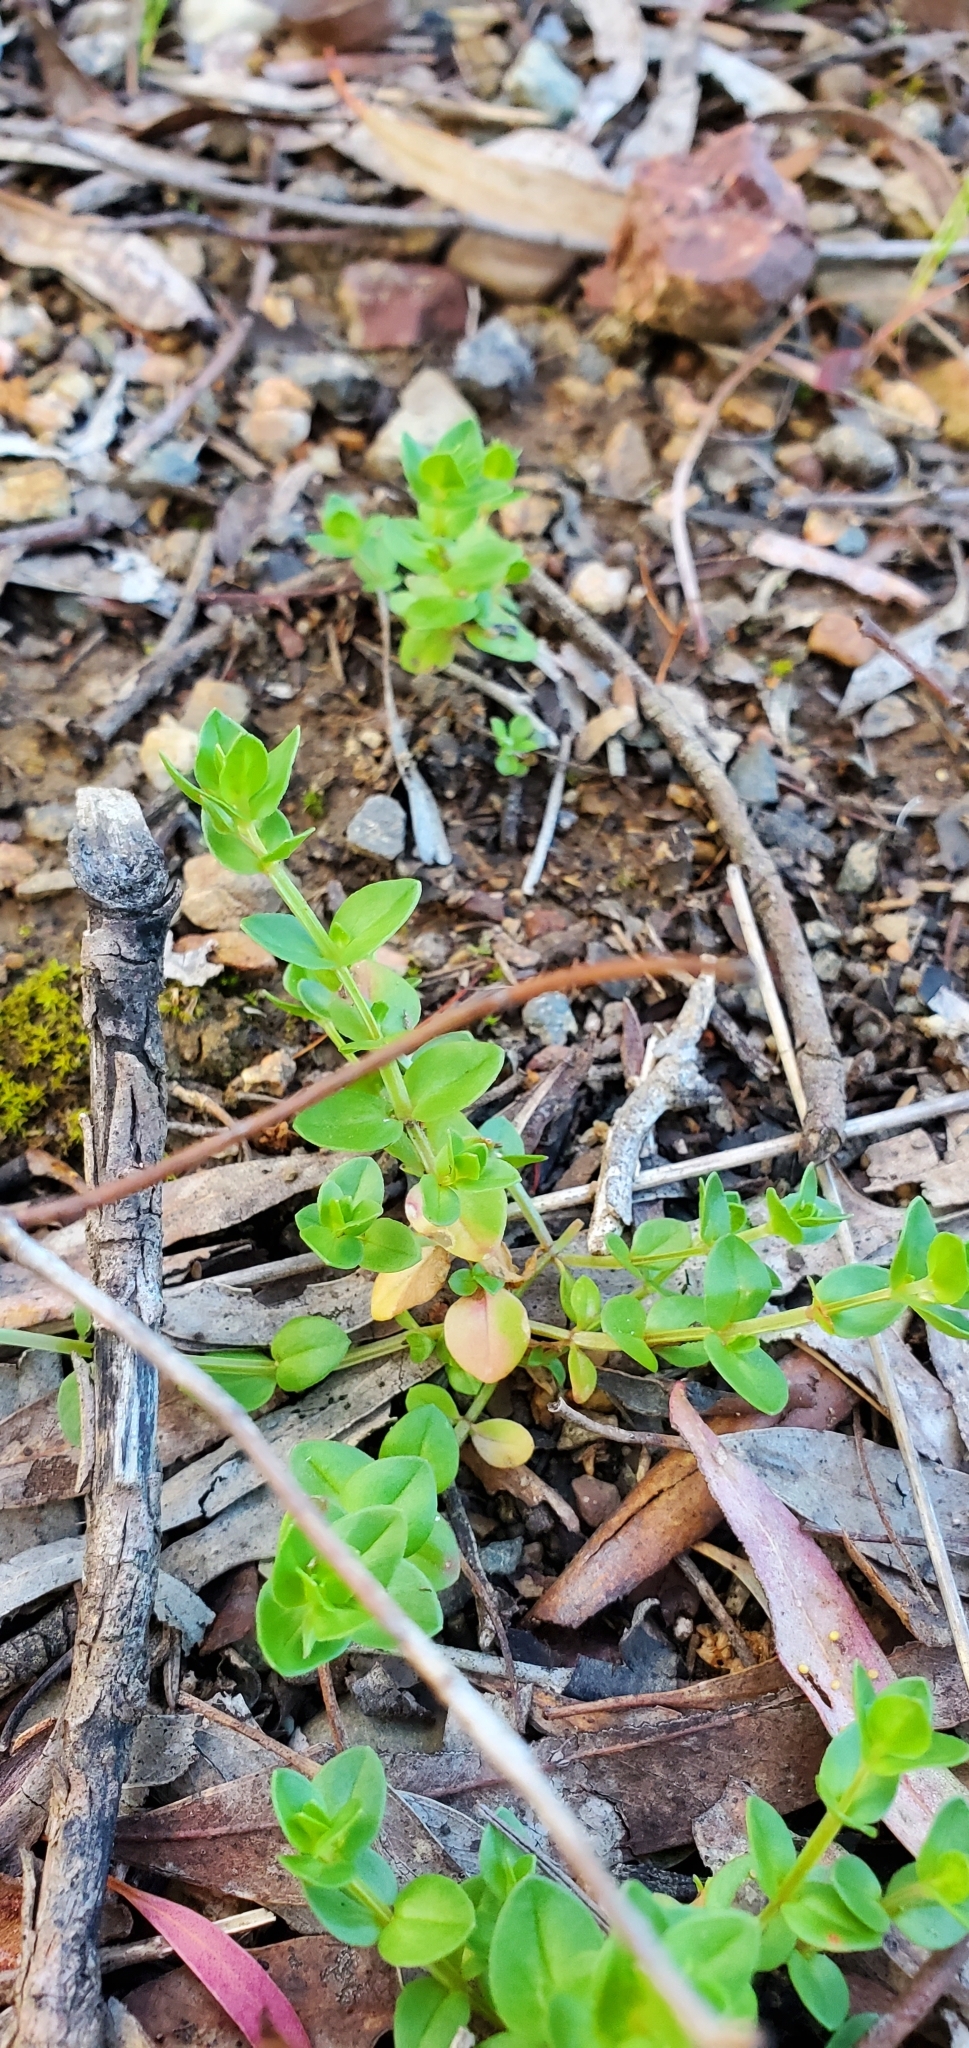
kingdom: Plantae
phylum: Tracheophyta
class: Magnoliopsida
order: Ericales
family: Primulaceae
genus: Lysimachia
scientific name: Lysimachia arvensis
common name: Scarlet pimpernel
